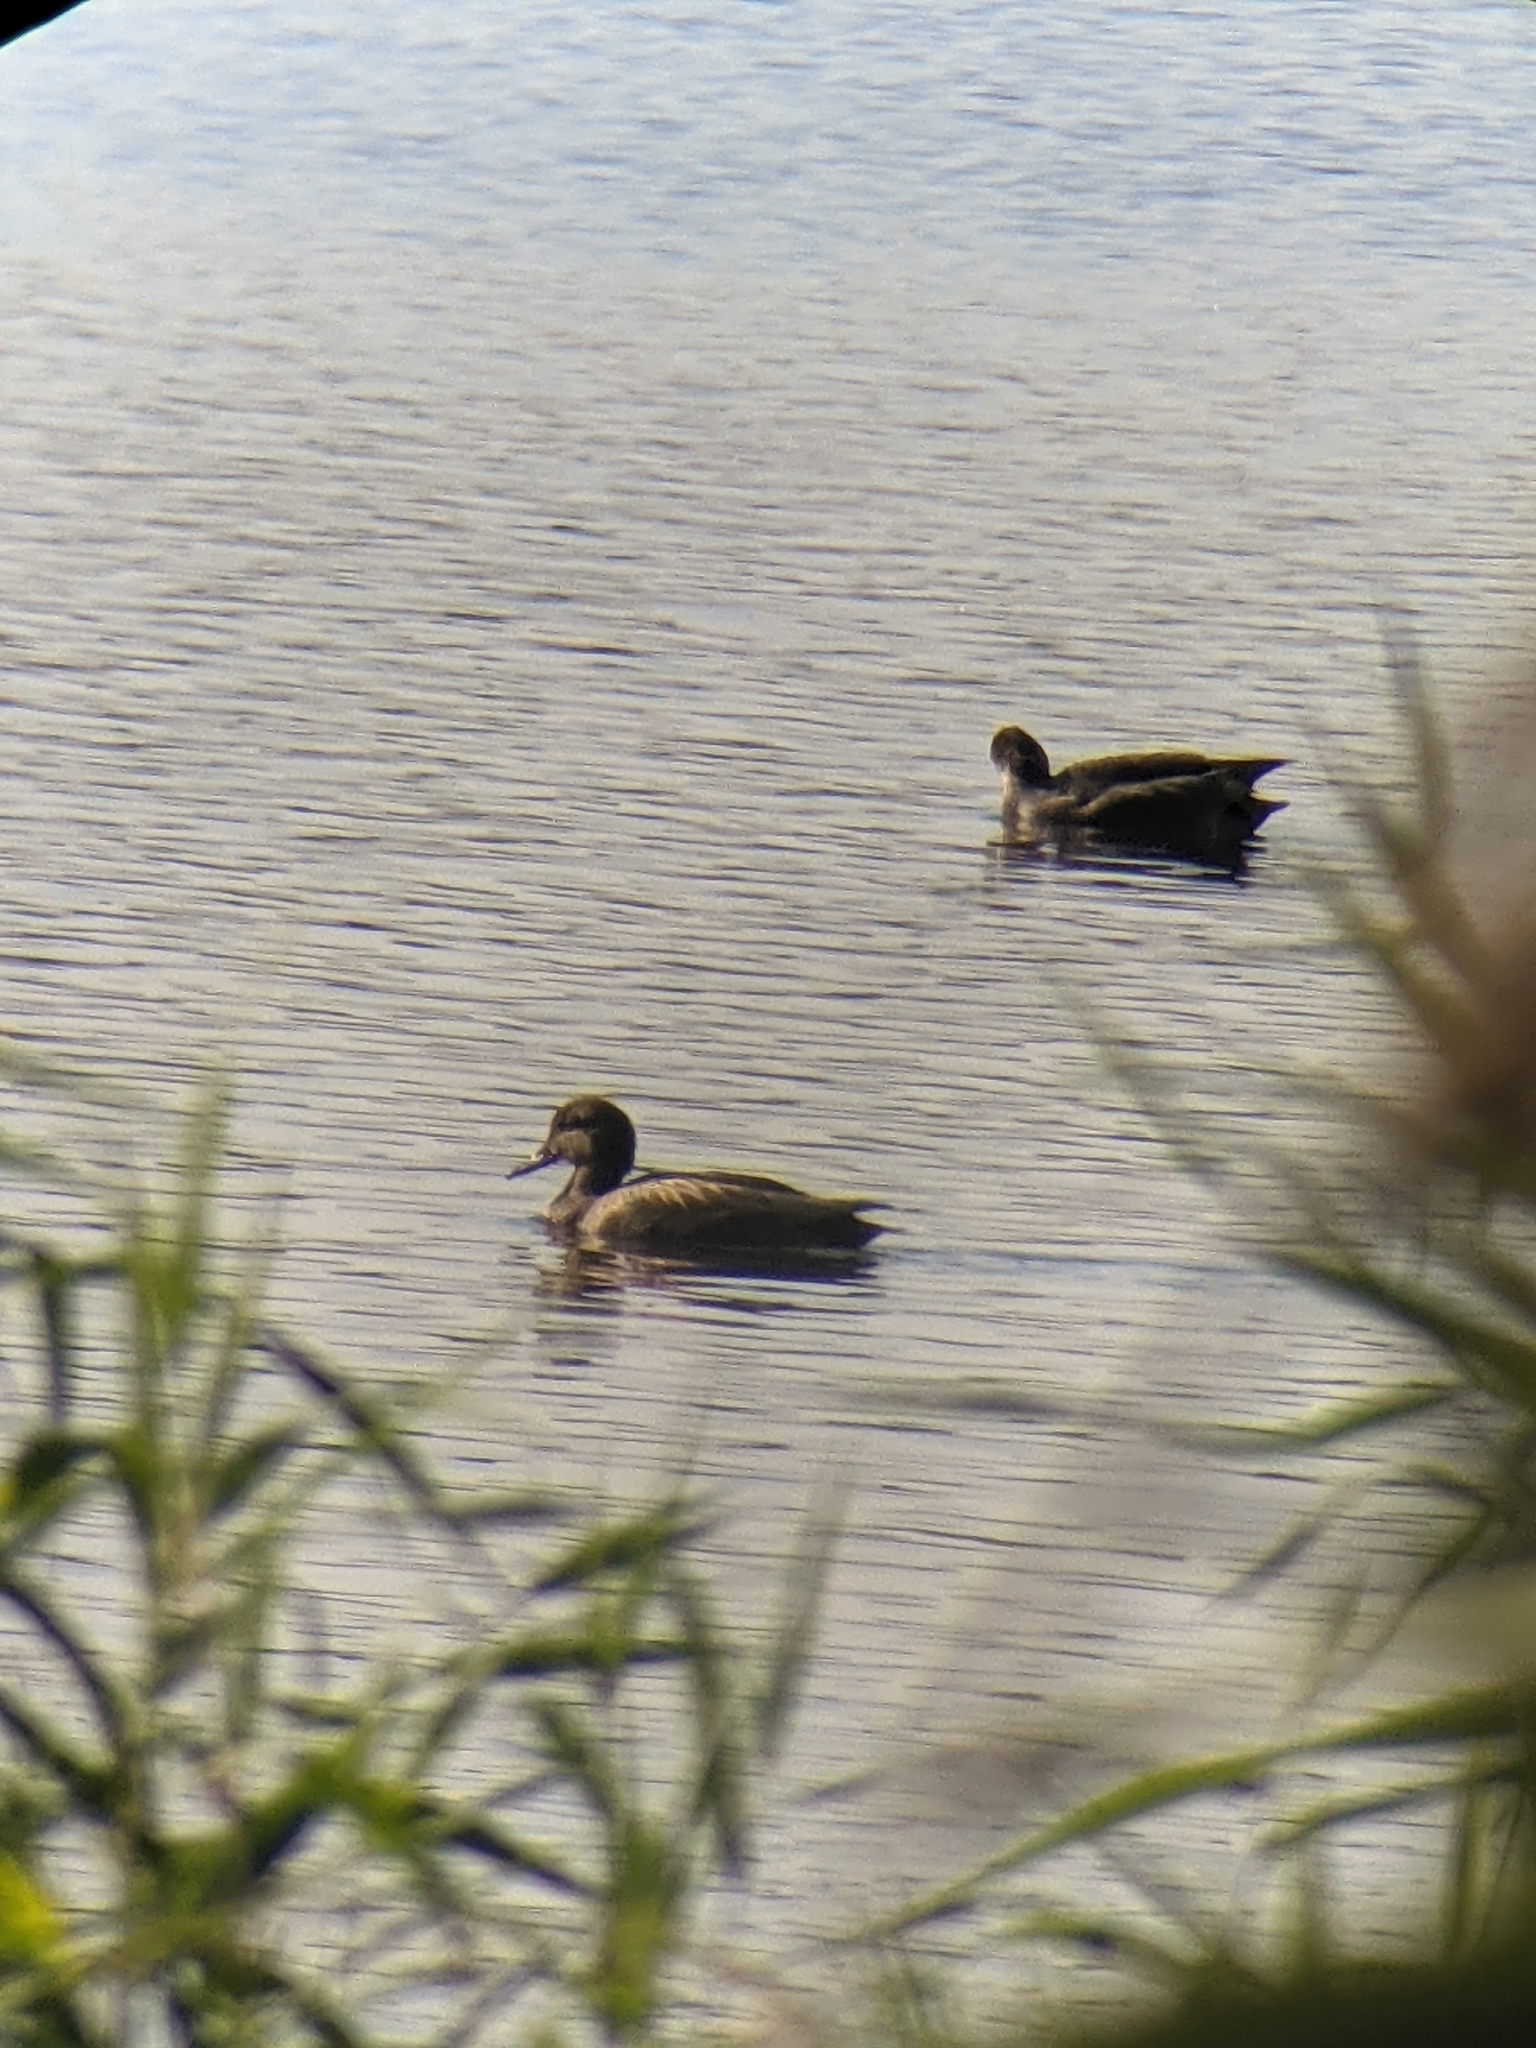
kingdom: Animalia
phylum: Chordata
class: Aves
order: Anseriformes
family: Anatidae
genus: Mareca
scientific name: Mareca strepera
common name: Gadwall
